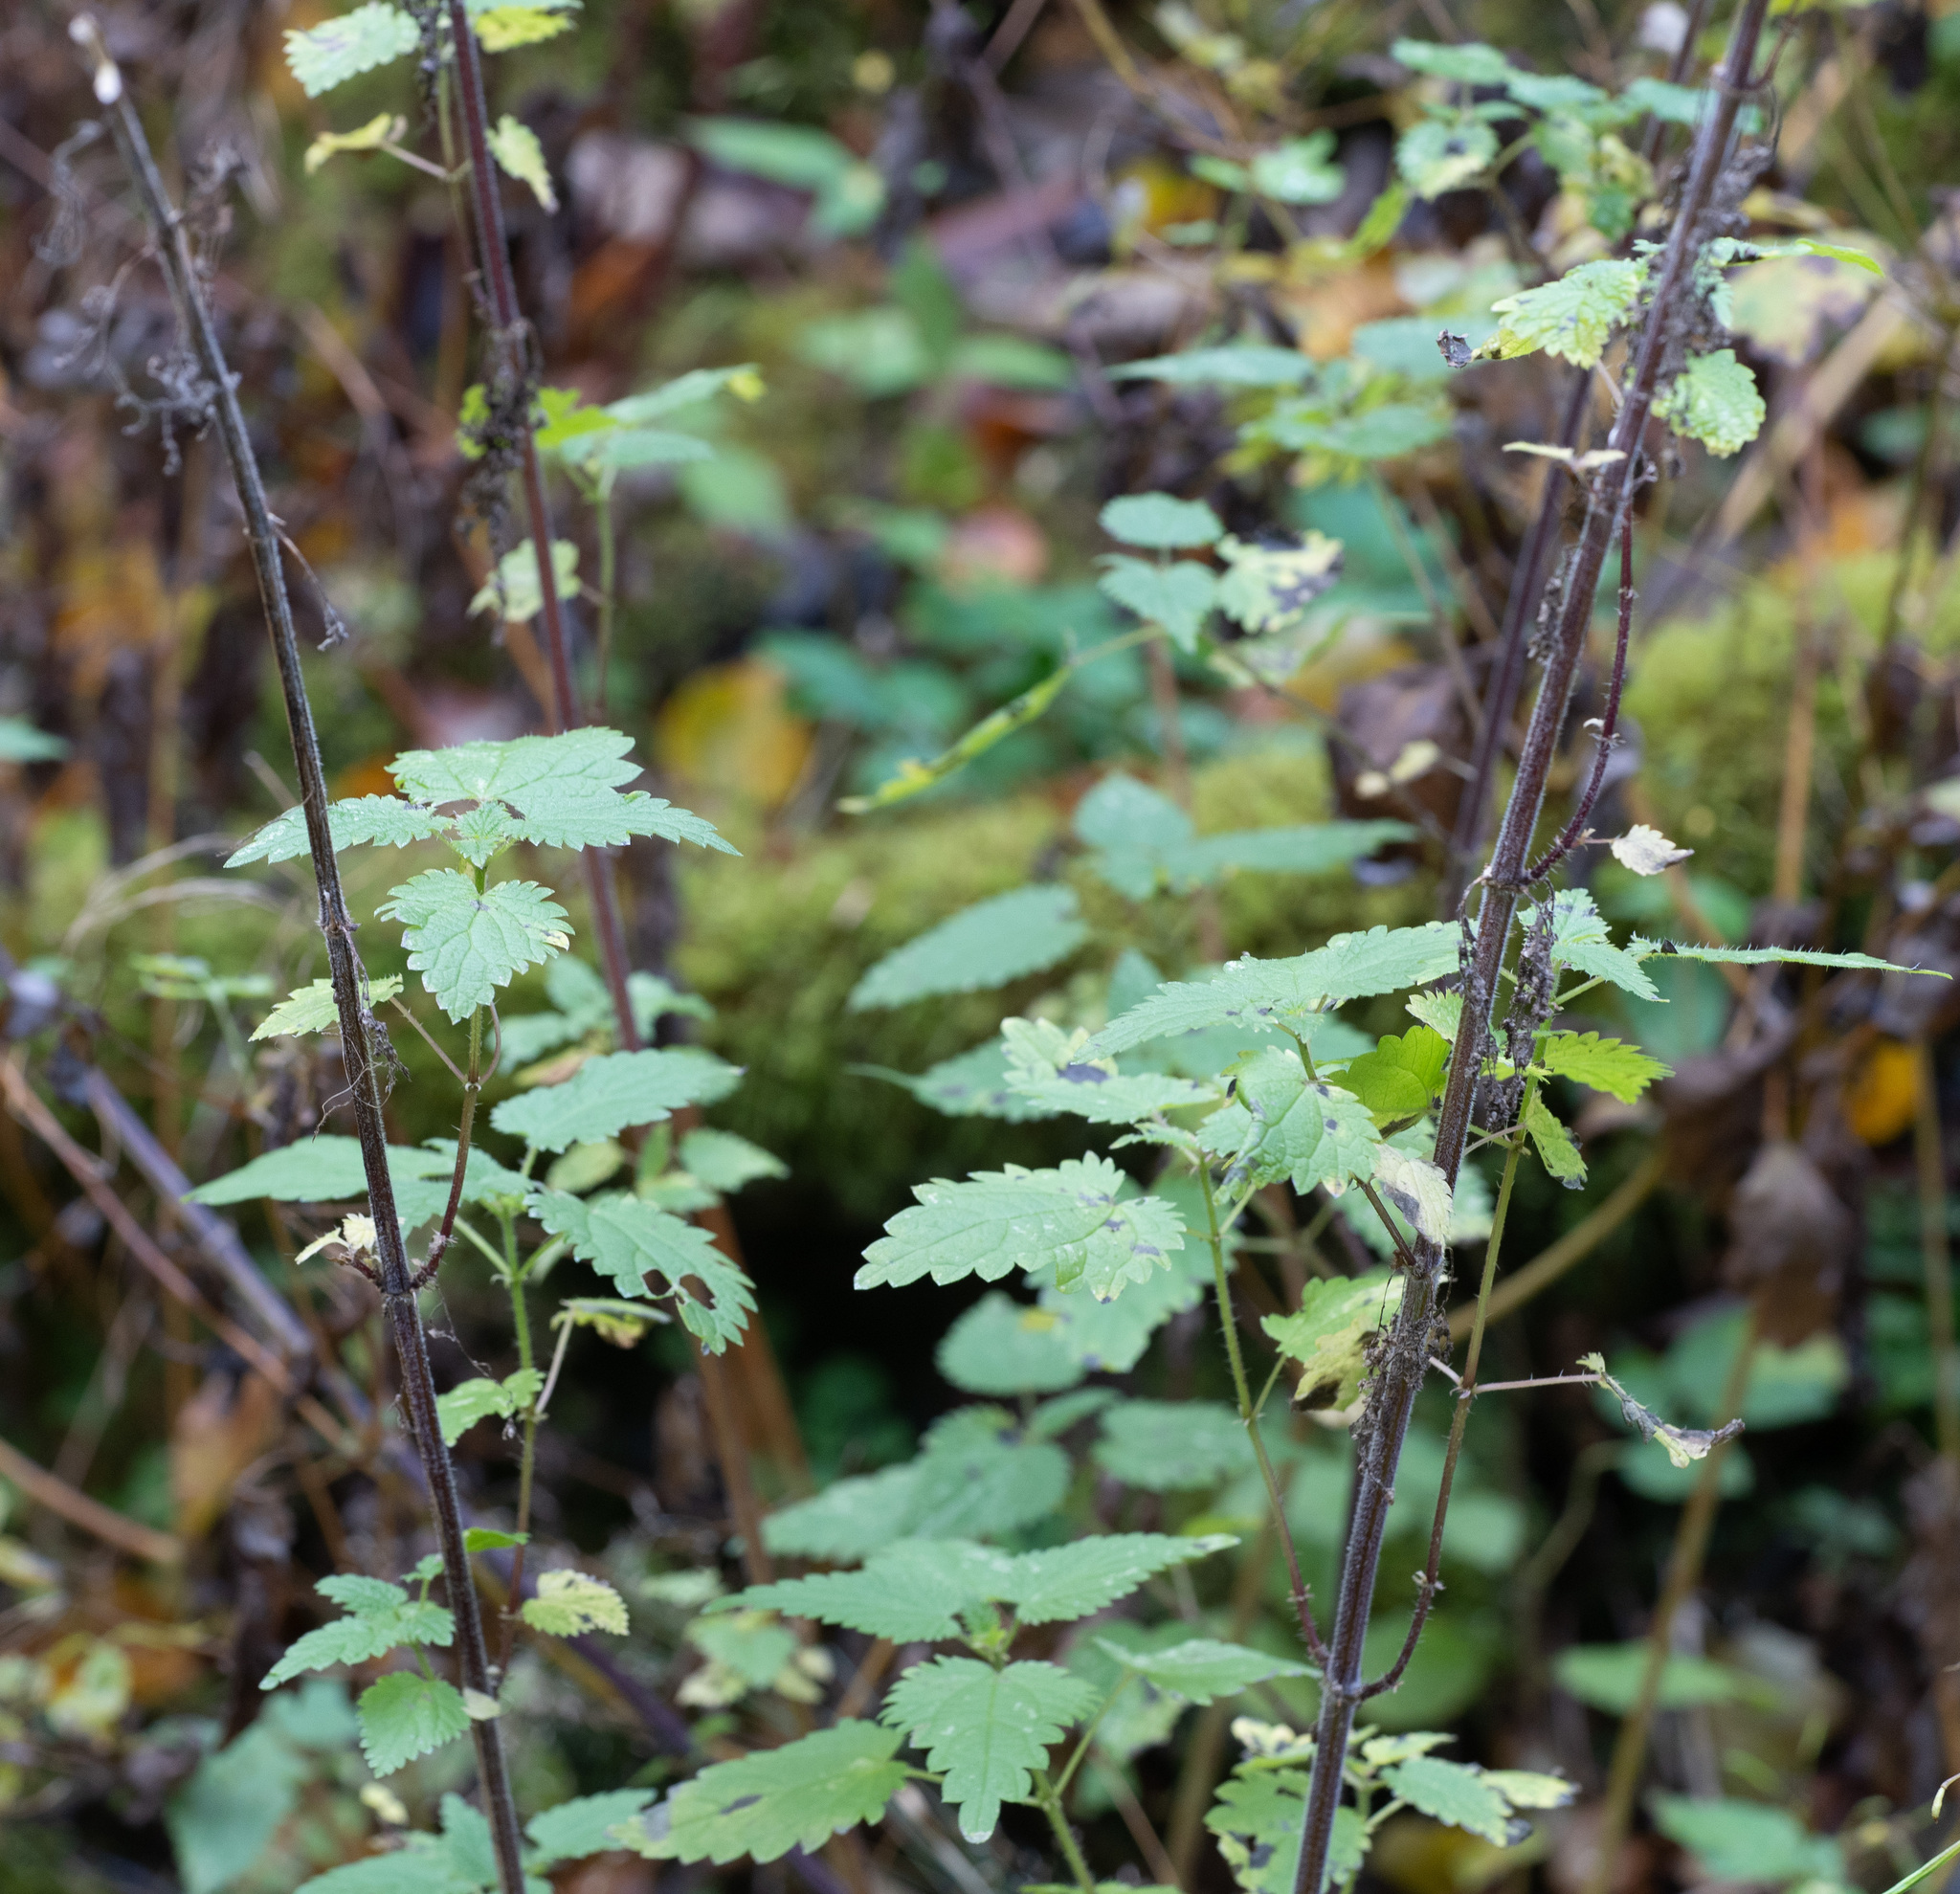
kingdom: Plantae
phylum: Tracheophyta
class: Magnoliopsida
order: Rosales
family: Urticaceae
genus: Urtica
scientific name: Urtica dioica
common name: Common nettle
